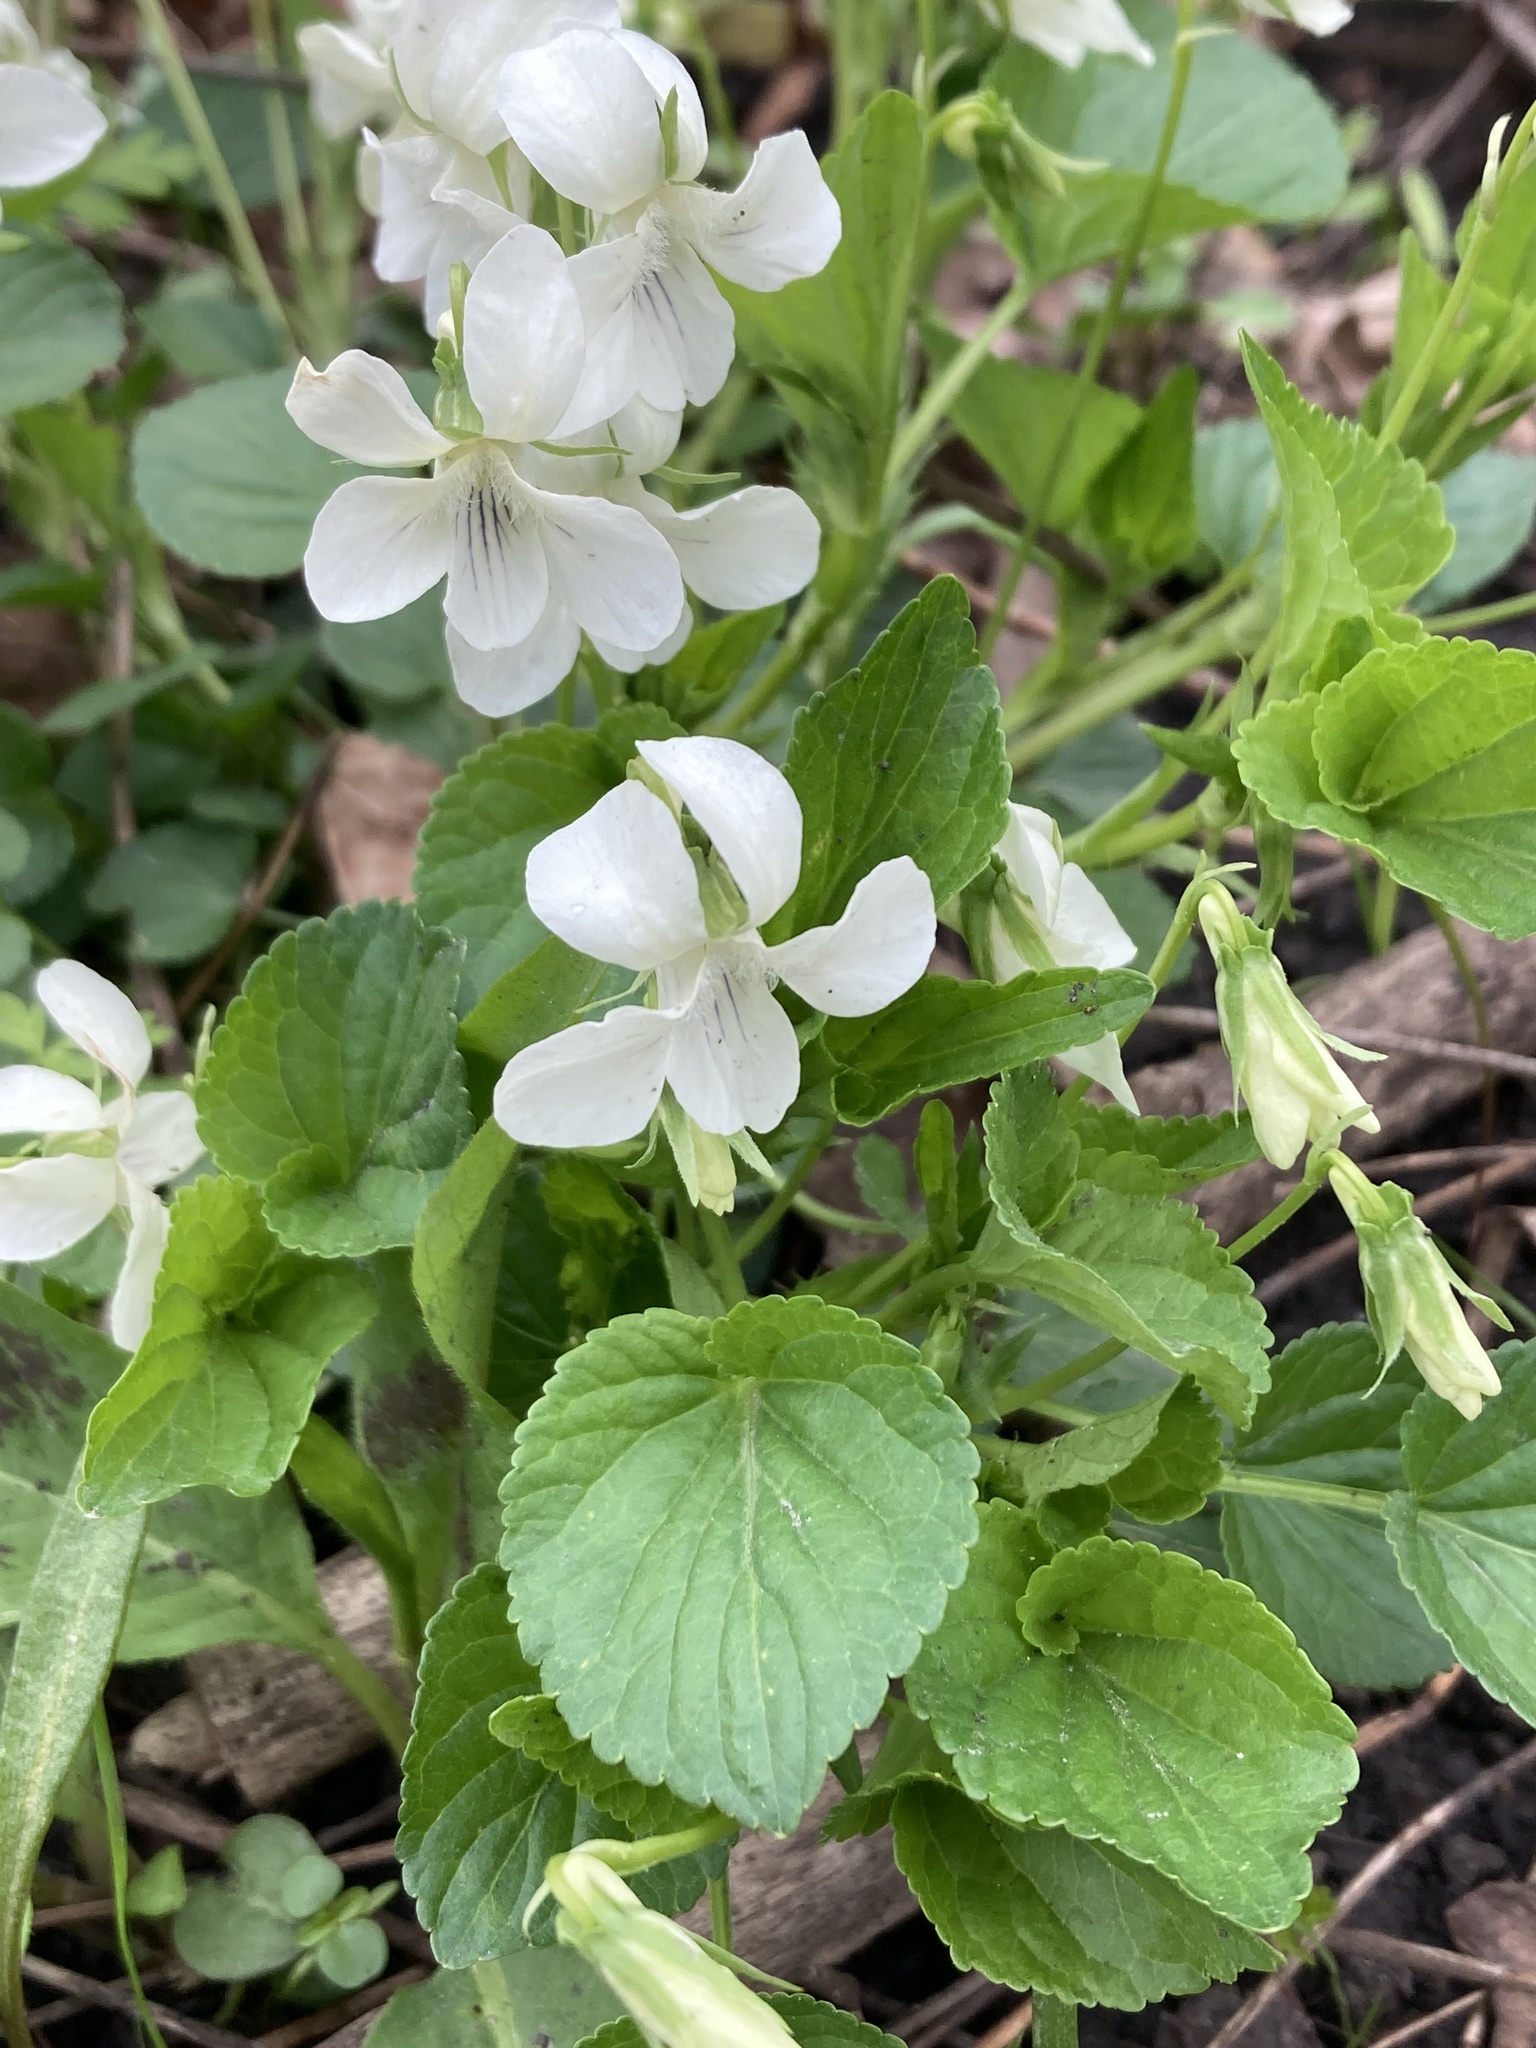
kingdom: Plantae
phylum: Tracheophyta
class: Magnoliopsida
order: Malpighiales
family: Violaceae
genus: Viola
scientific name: Viola striata
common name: Cream violet
